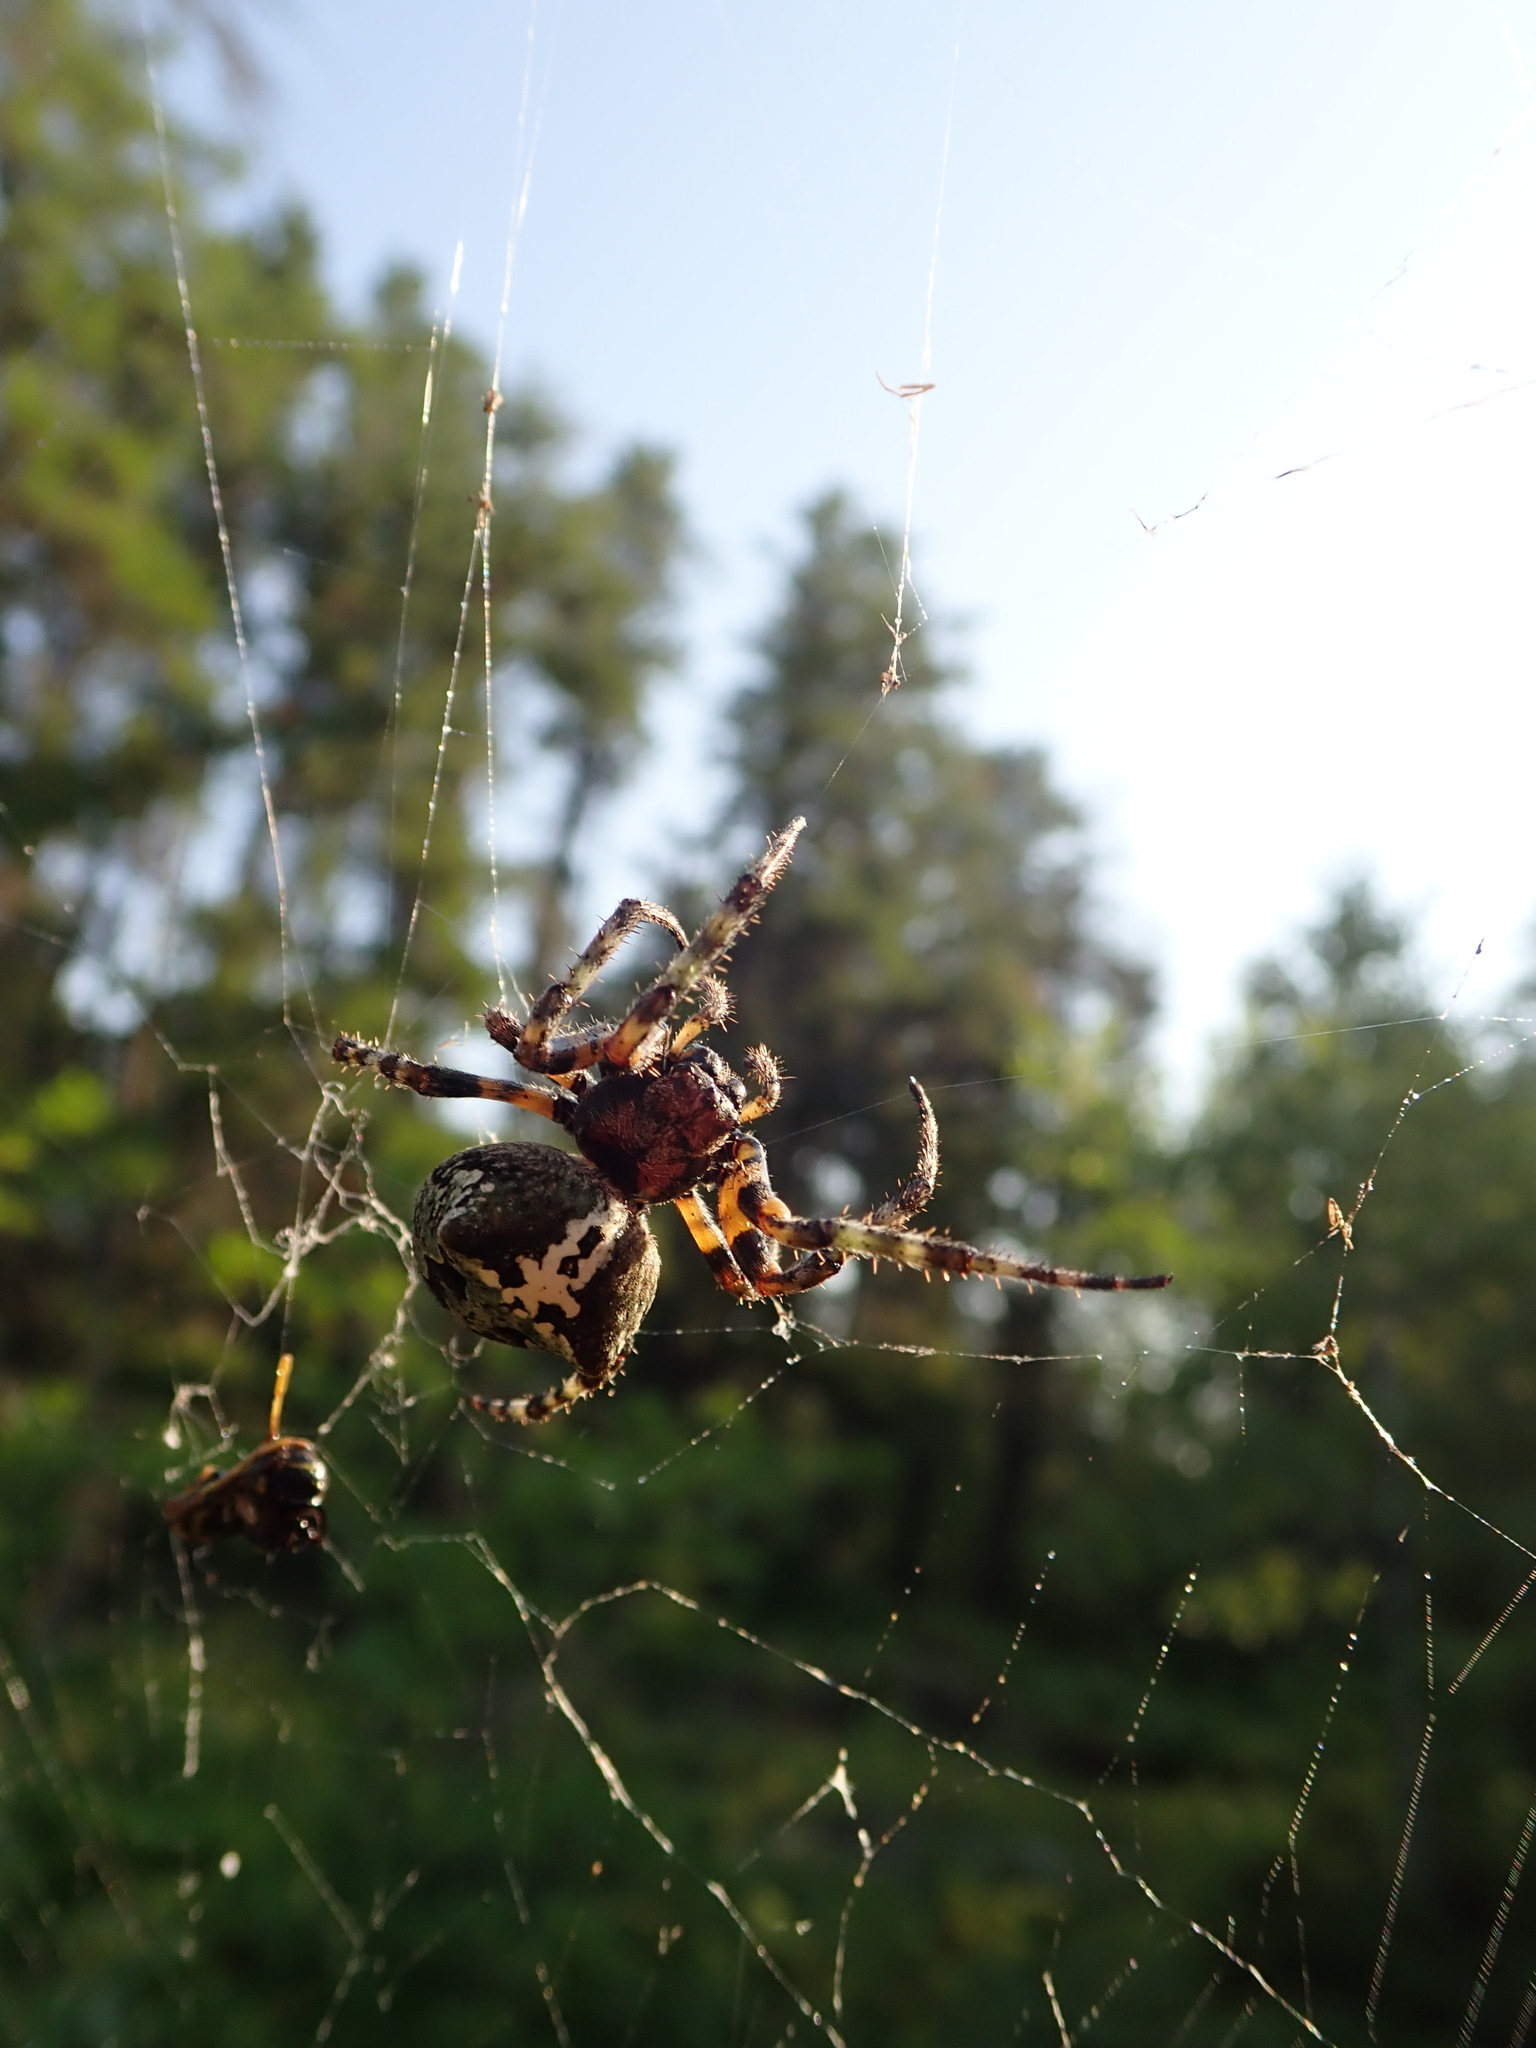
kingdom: Animalia
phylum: Arthropoda
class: Arachnida
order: Araneae
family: Araneidae
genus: Araneus
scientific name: Araneus bicentenarius
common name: Giant lichen orbweaver
